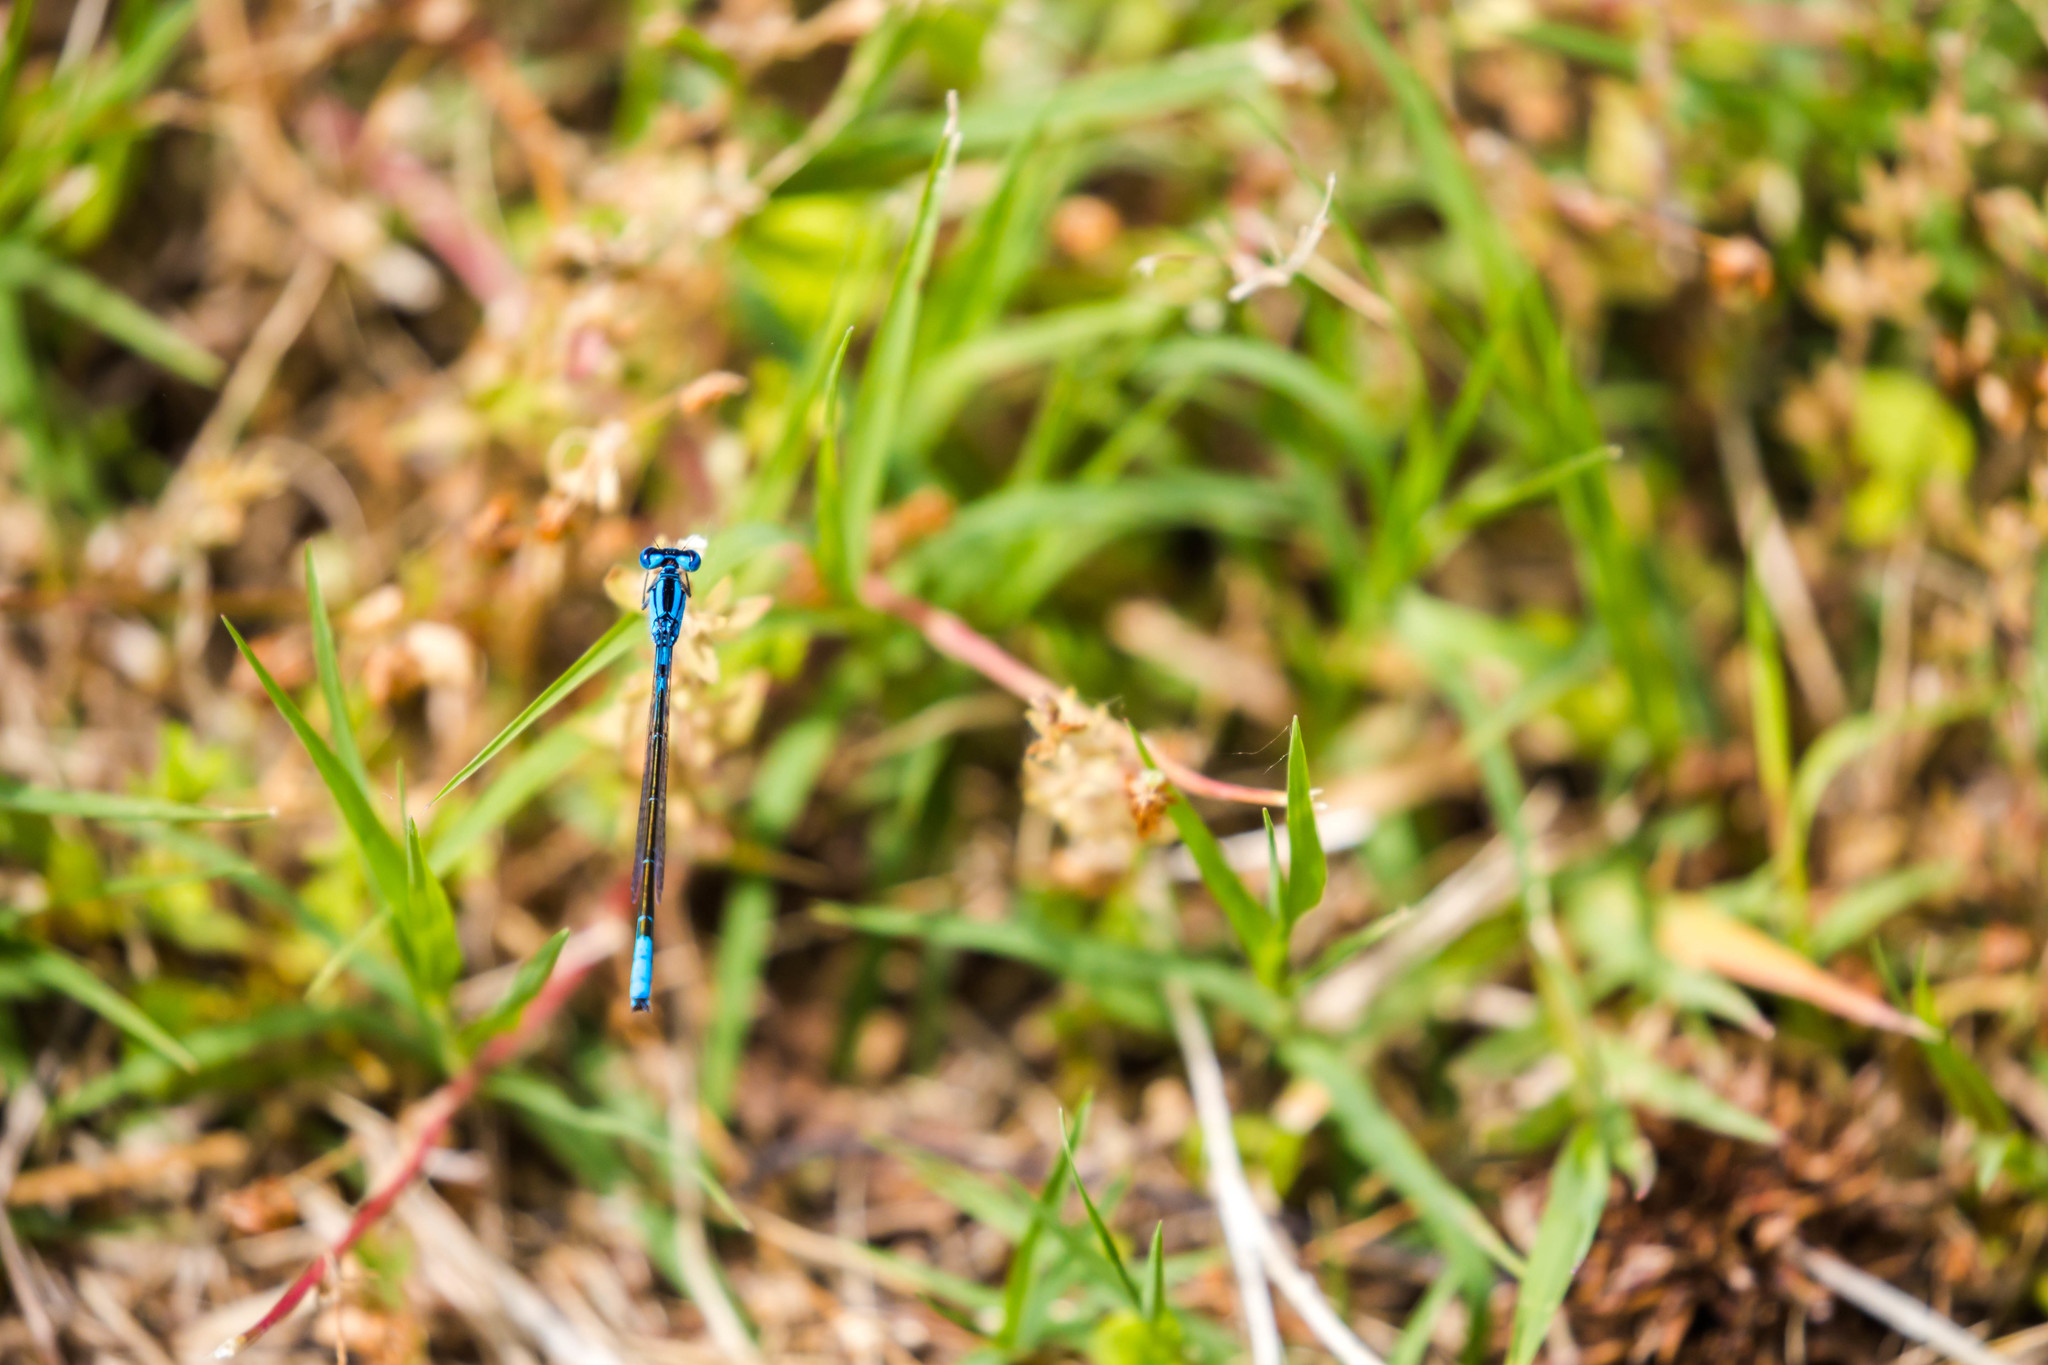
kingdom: Animalia
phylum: Arthropoda
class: Insecta
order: Odonata
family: Coenagrionidae
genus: Enallagma
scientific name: Enallagma aspersum
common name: Azure bluet
